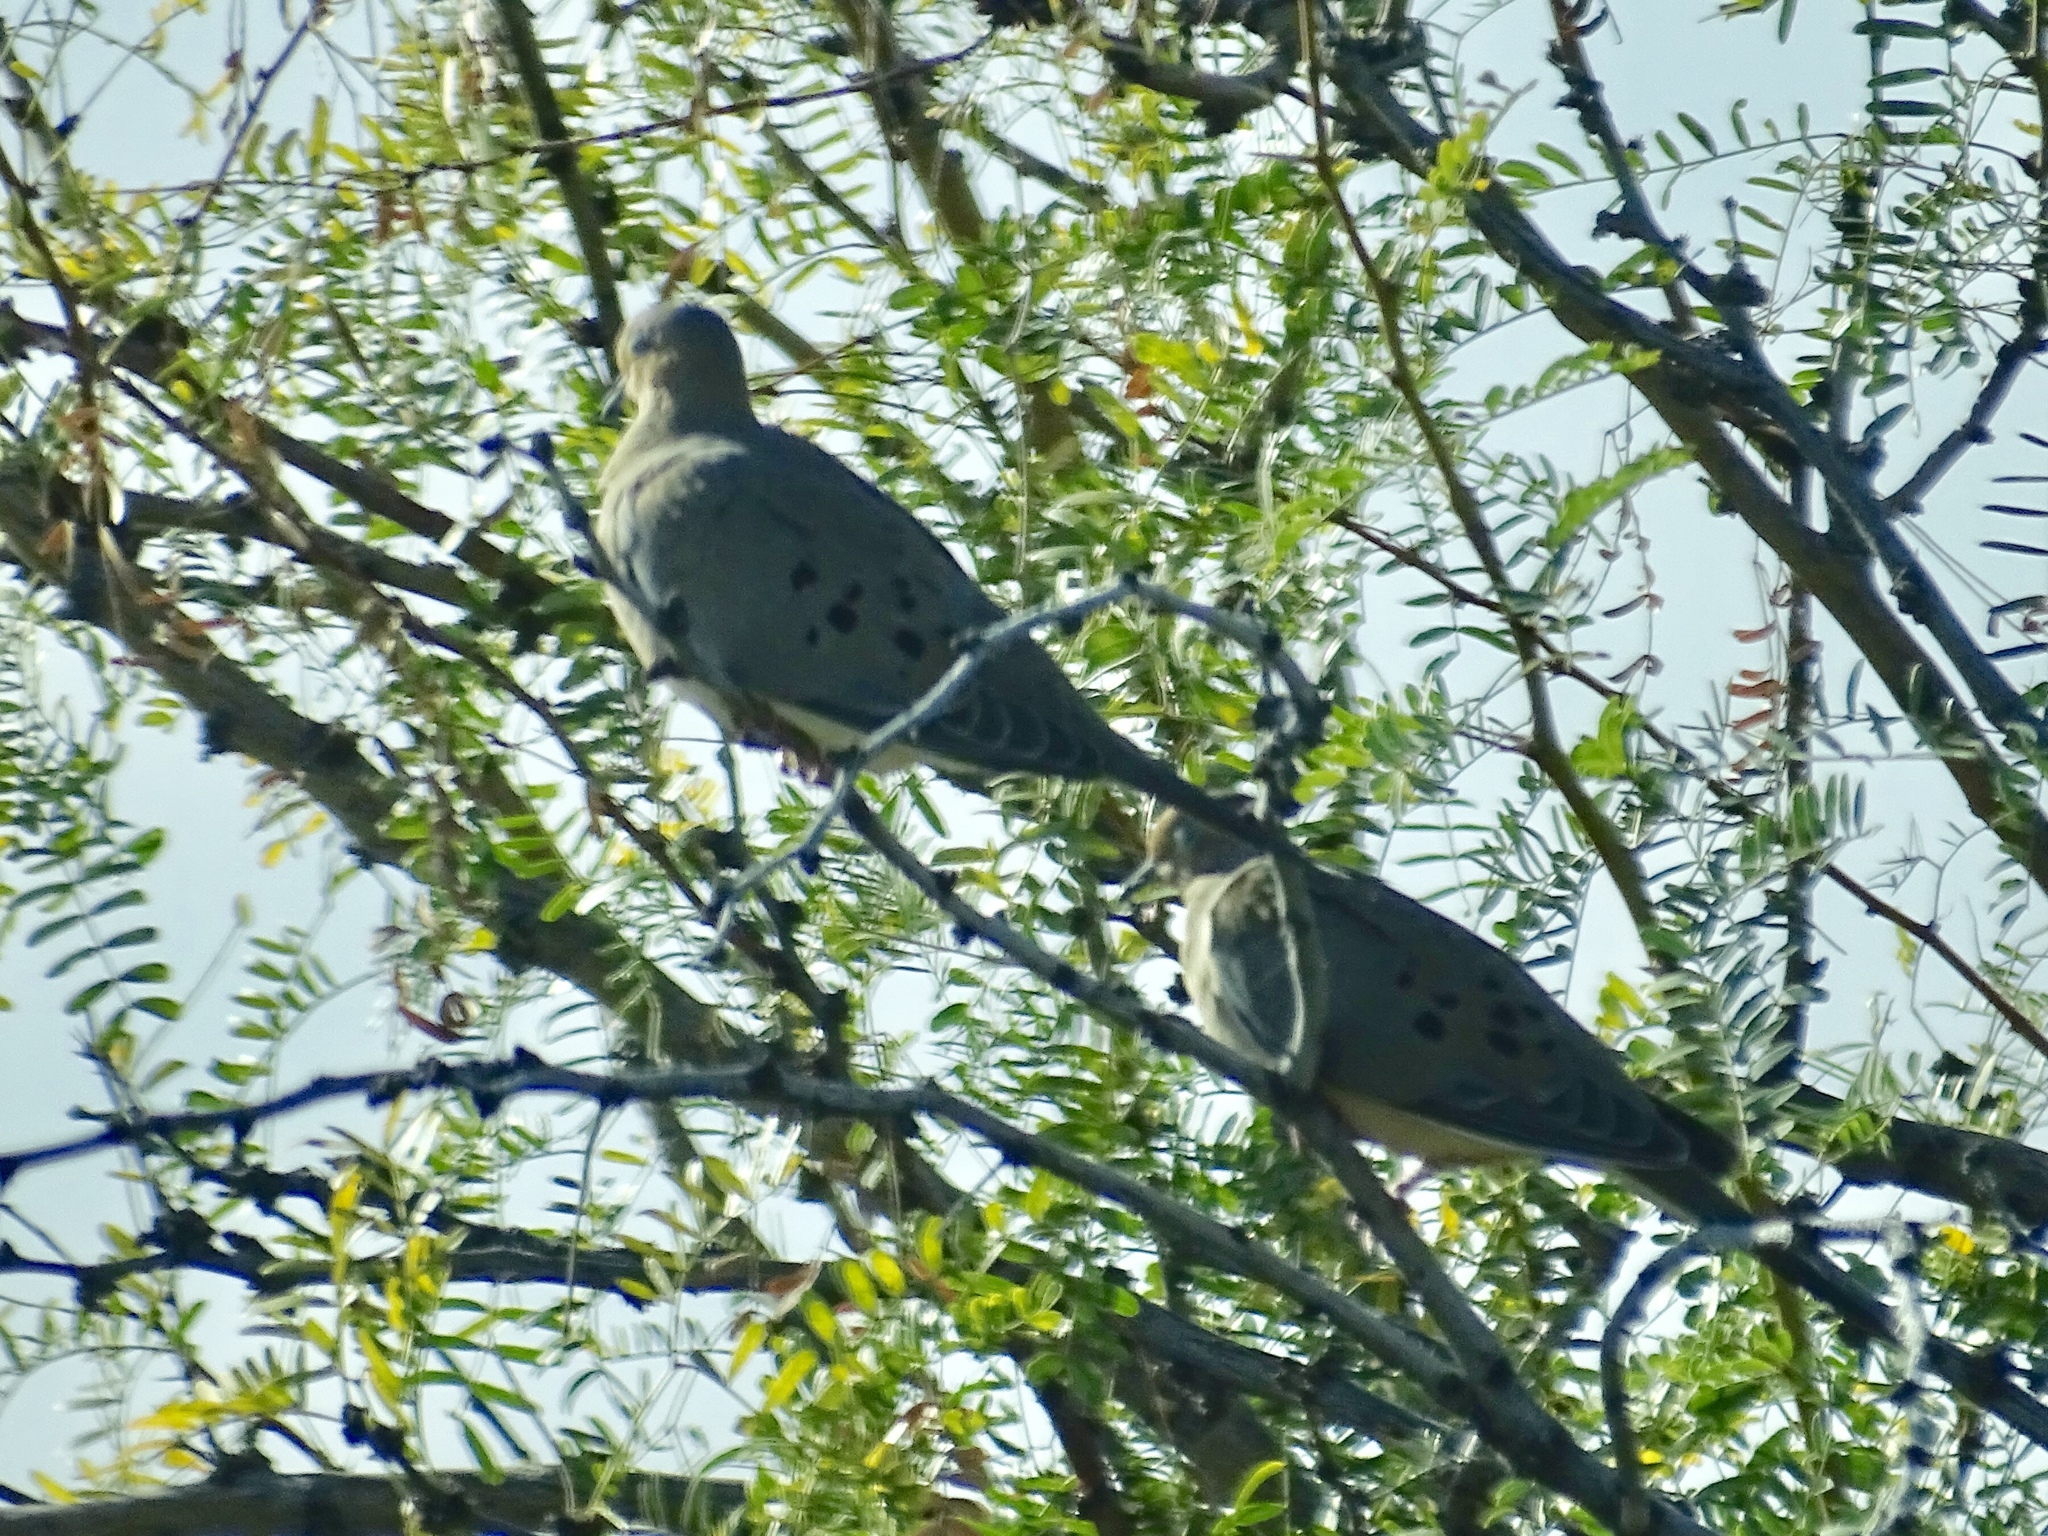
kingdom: Animalia
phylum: Chordata
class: Aves
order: Columbiformes
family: Columbidae
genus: Zenaida
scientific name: Zenaida macroura
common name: Mourning dove
